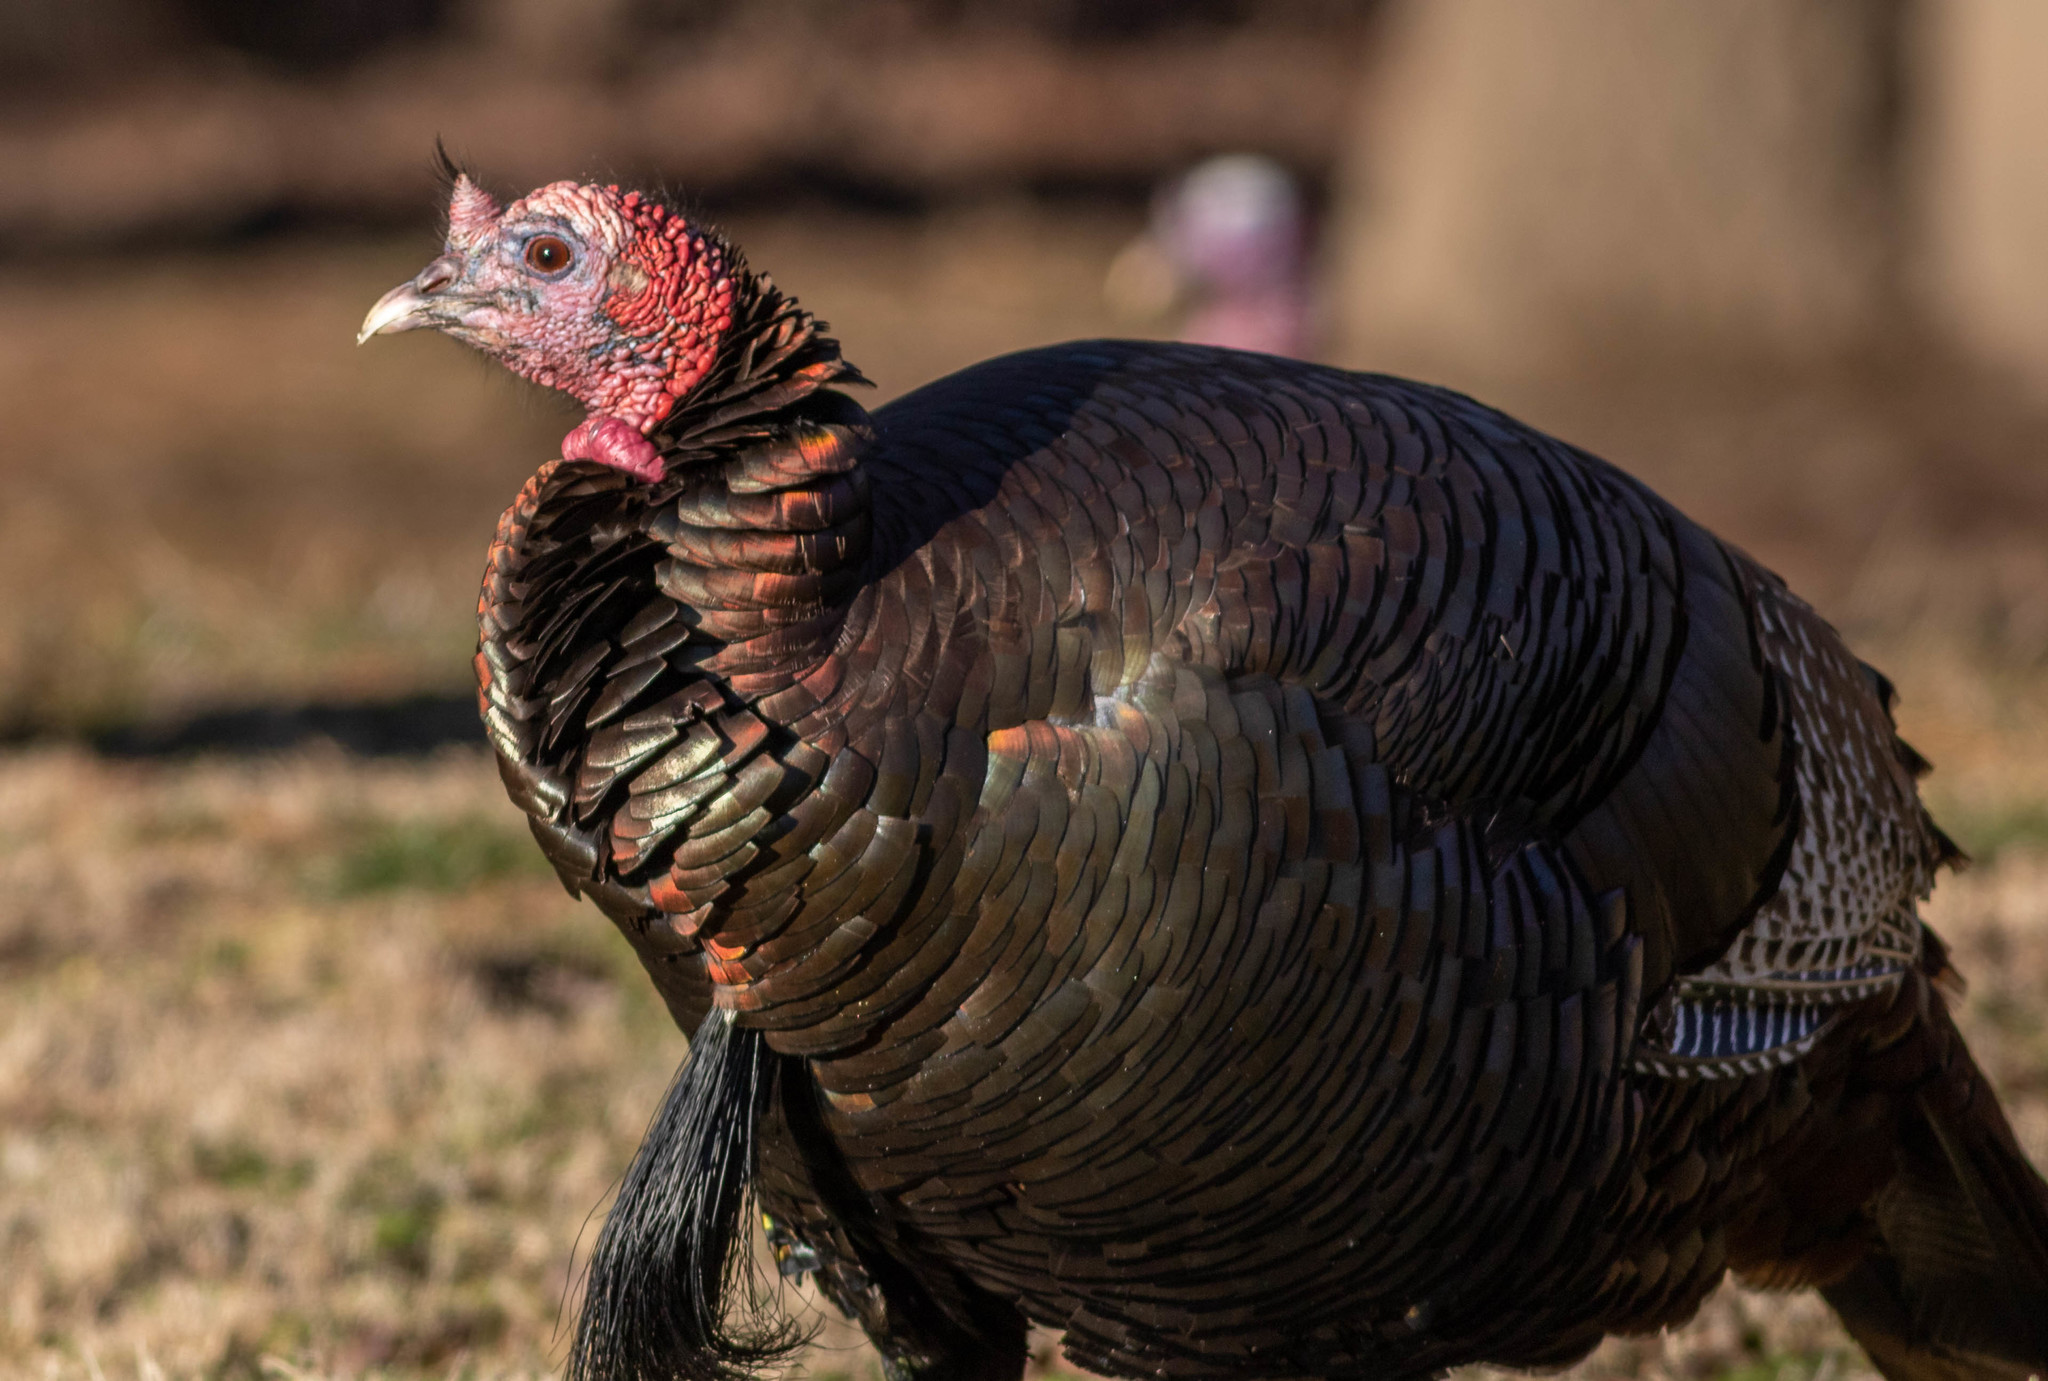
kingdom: Animalia
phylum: Chordata
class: Aves
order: Galliformes
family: Phasianidae
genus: Meleagris
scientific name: Meleagris gallopavo
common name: Wild turkey
